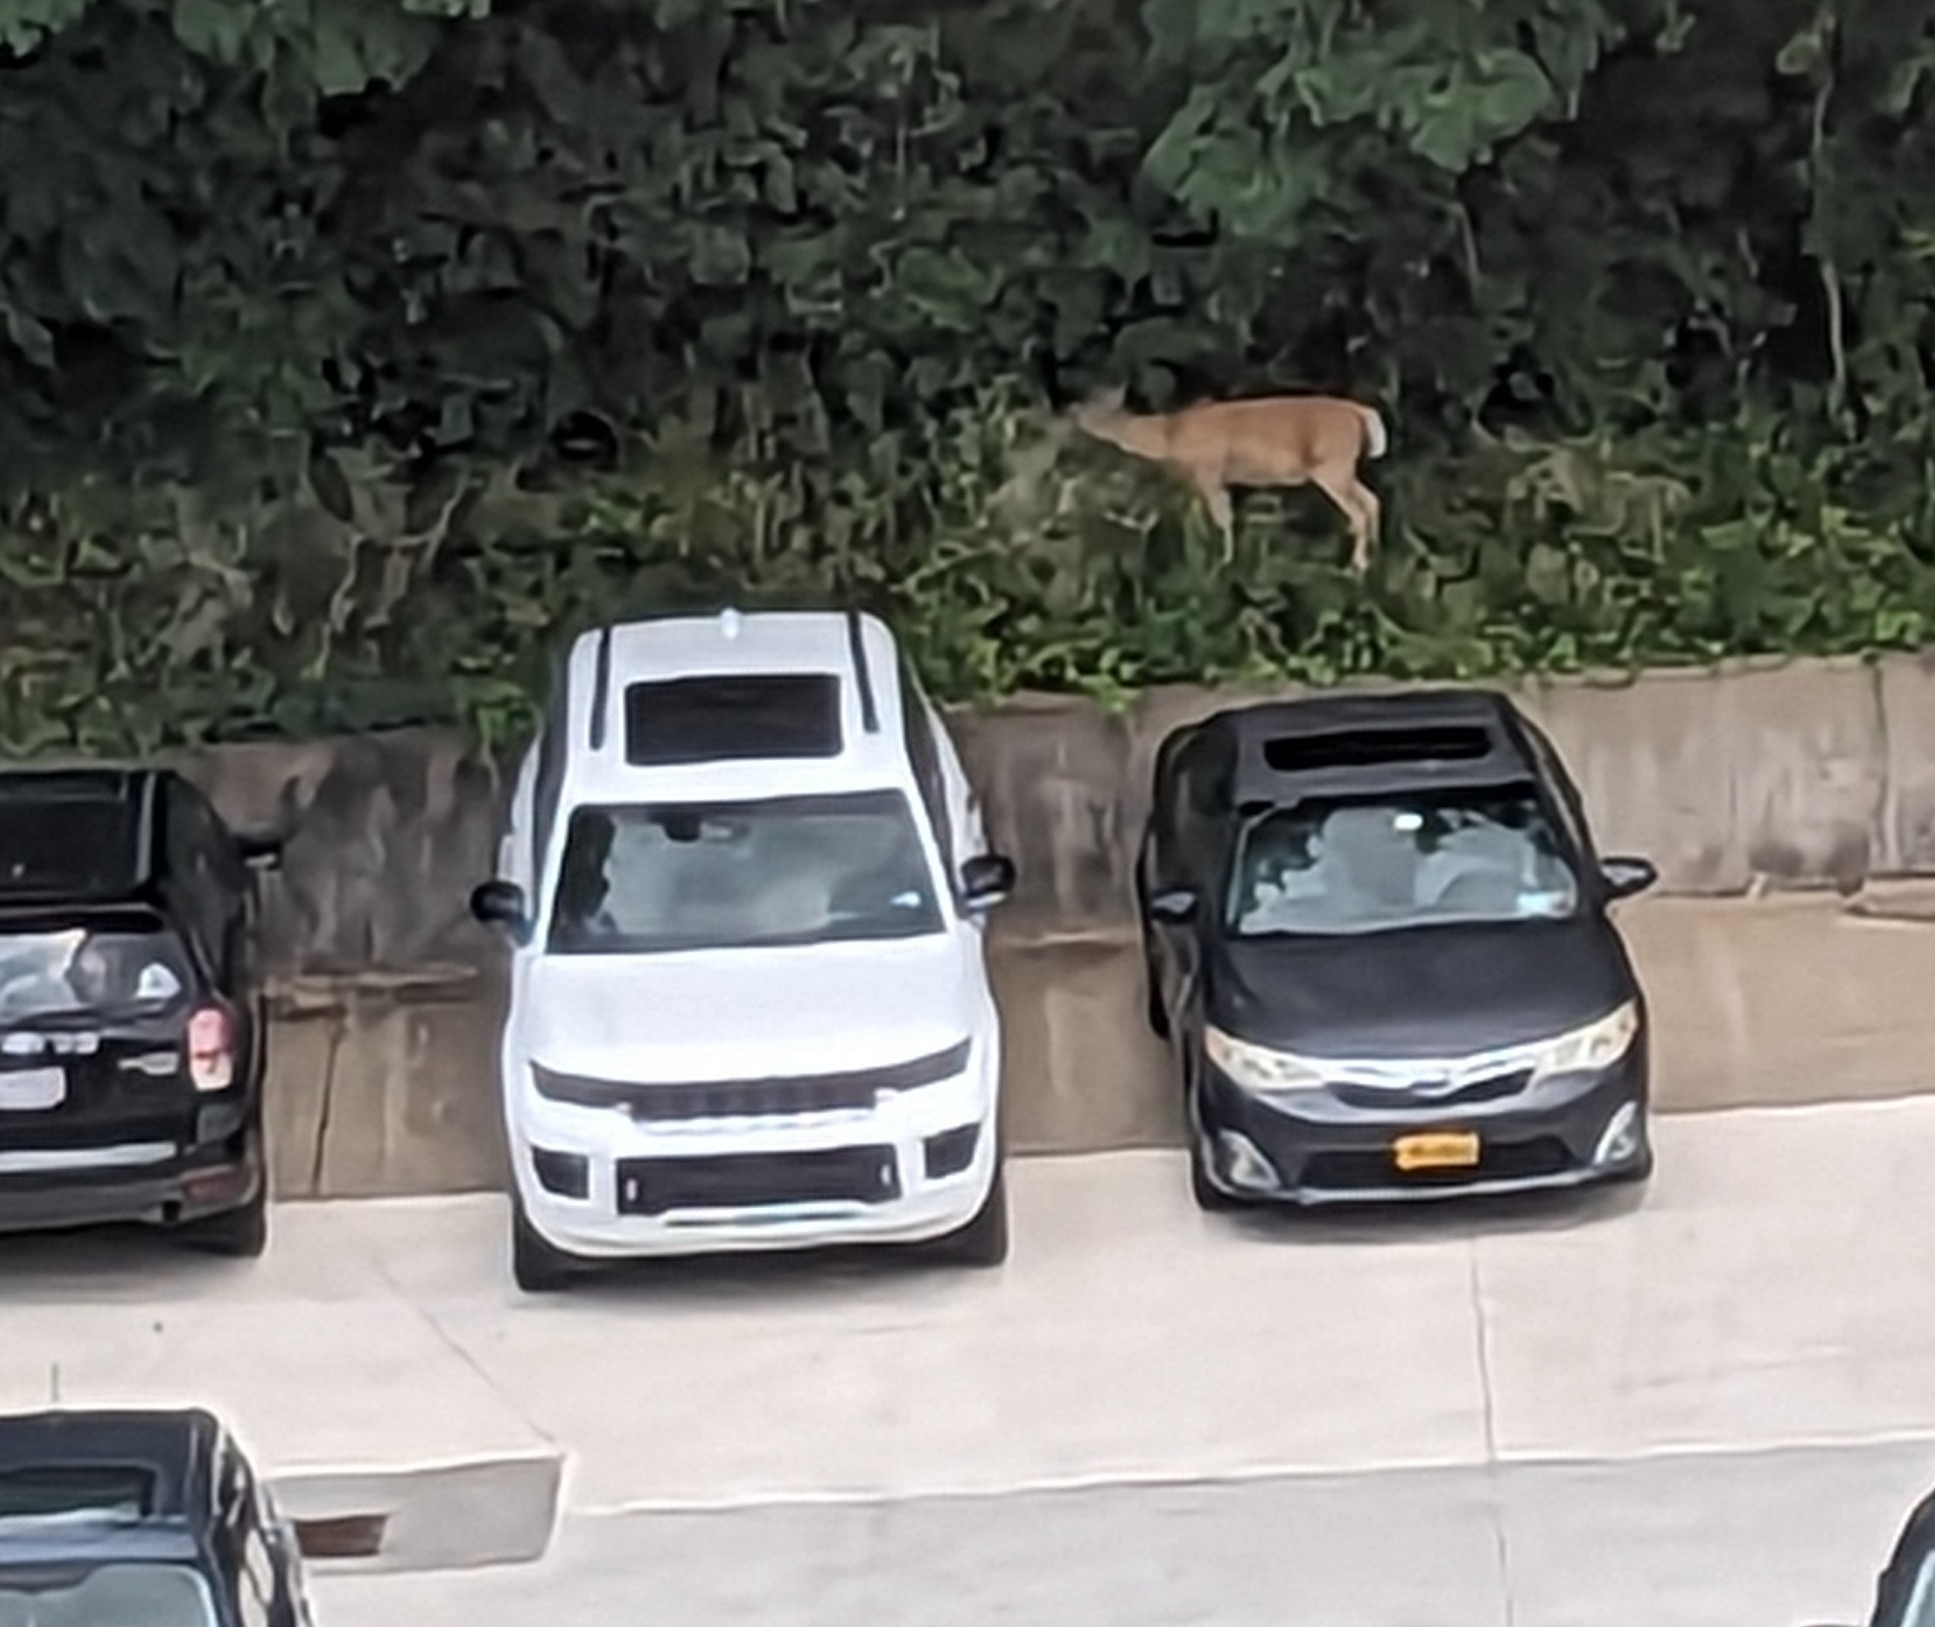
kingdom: Animalia
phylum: Chordata
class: Mammalia
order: Artiodactyla
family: Cervidae
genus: Odocoileus
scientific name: Odocoileus virginianus
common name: White-tailed deer
